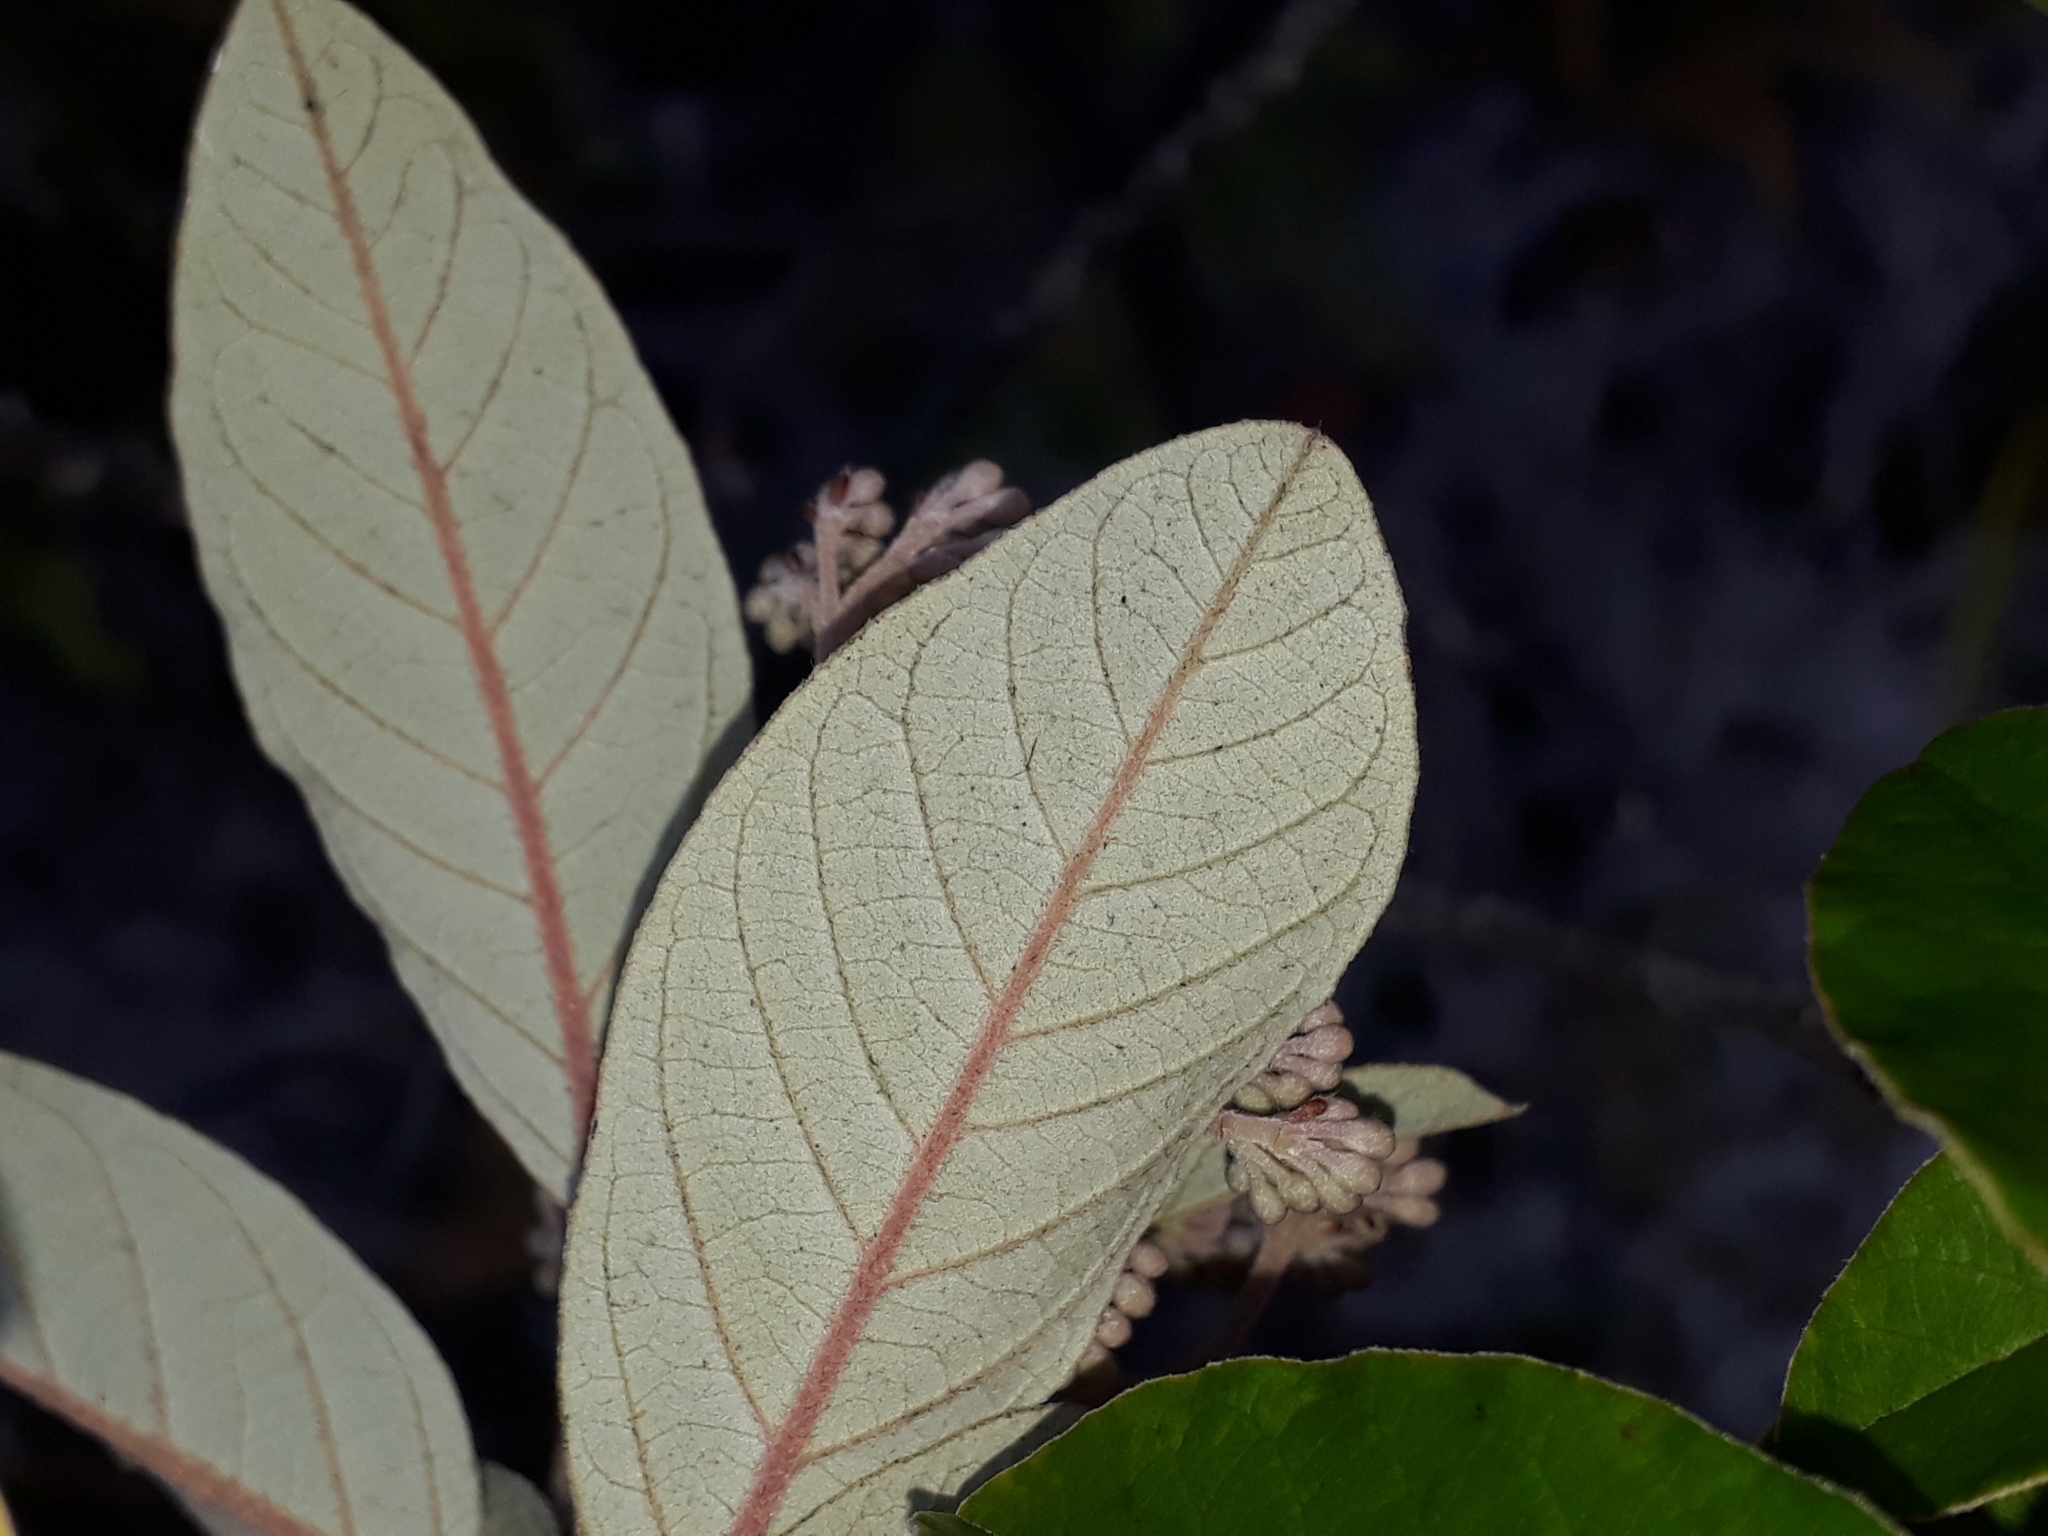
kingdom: Plantae
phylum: Tracheophyta
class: Magnoliopsida
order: Rosales
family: Rhamnaceae
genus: Pomaderris
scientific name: Pomaderris kumeraho
